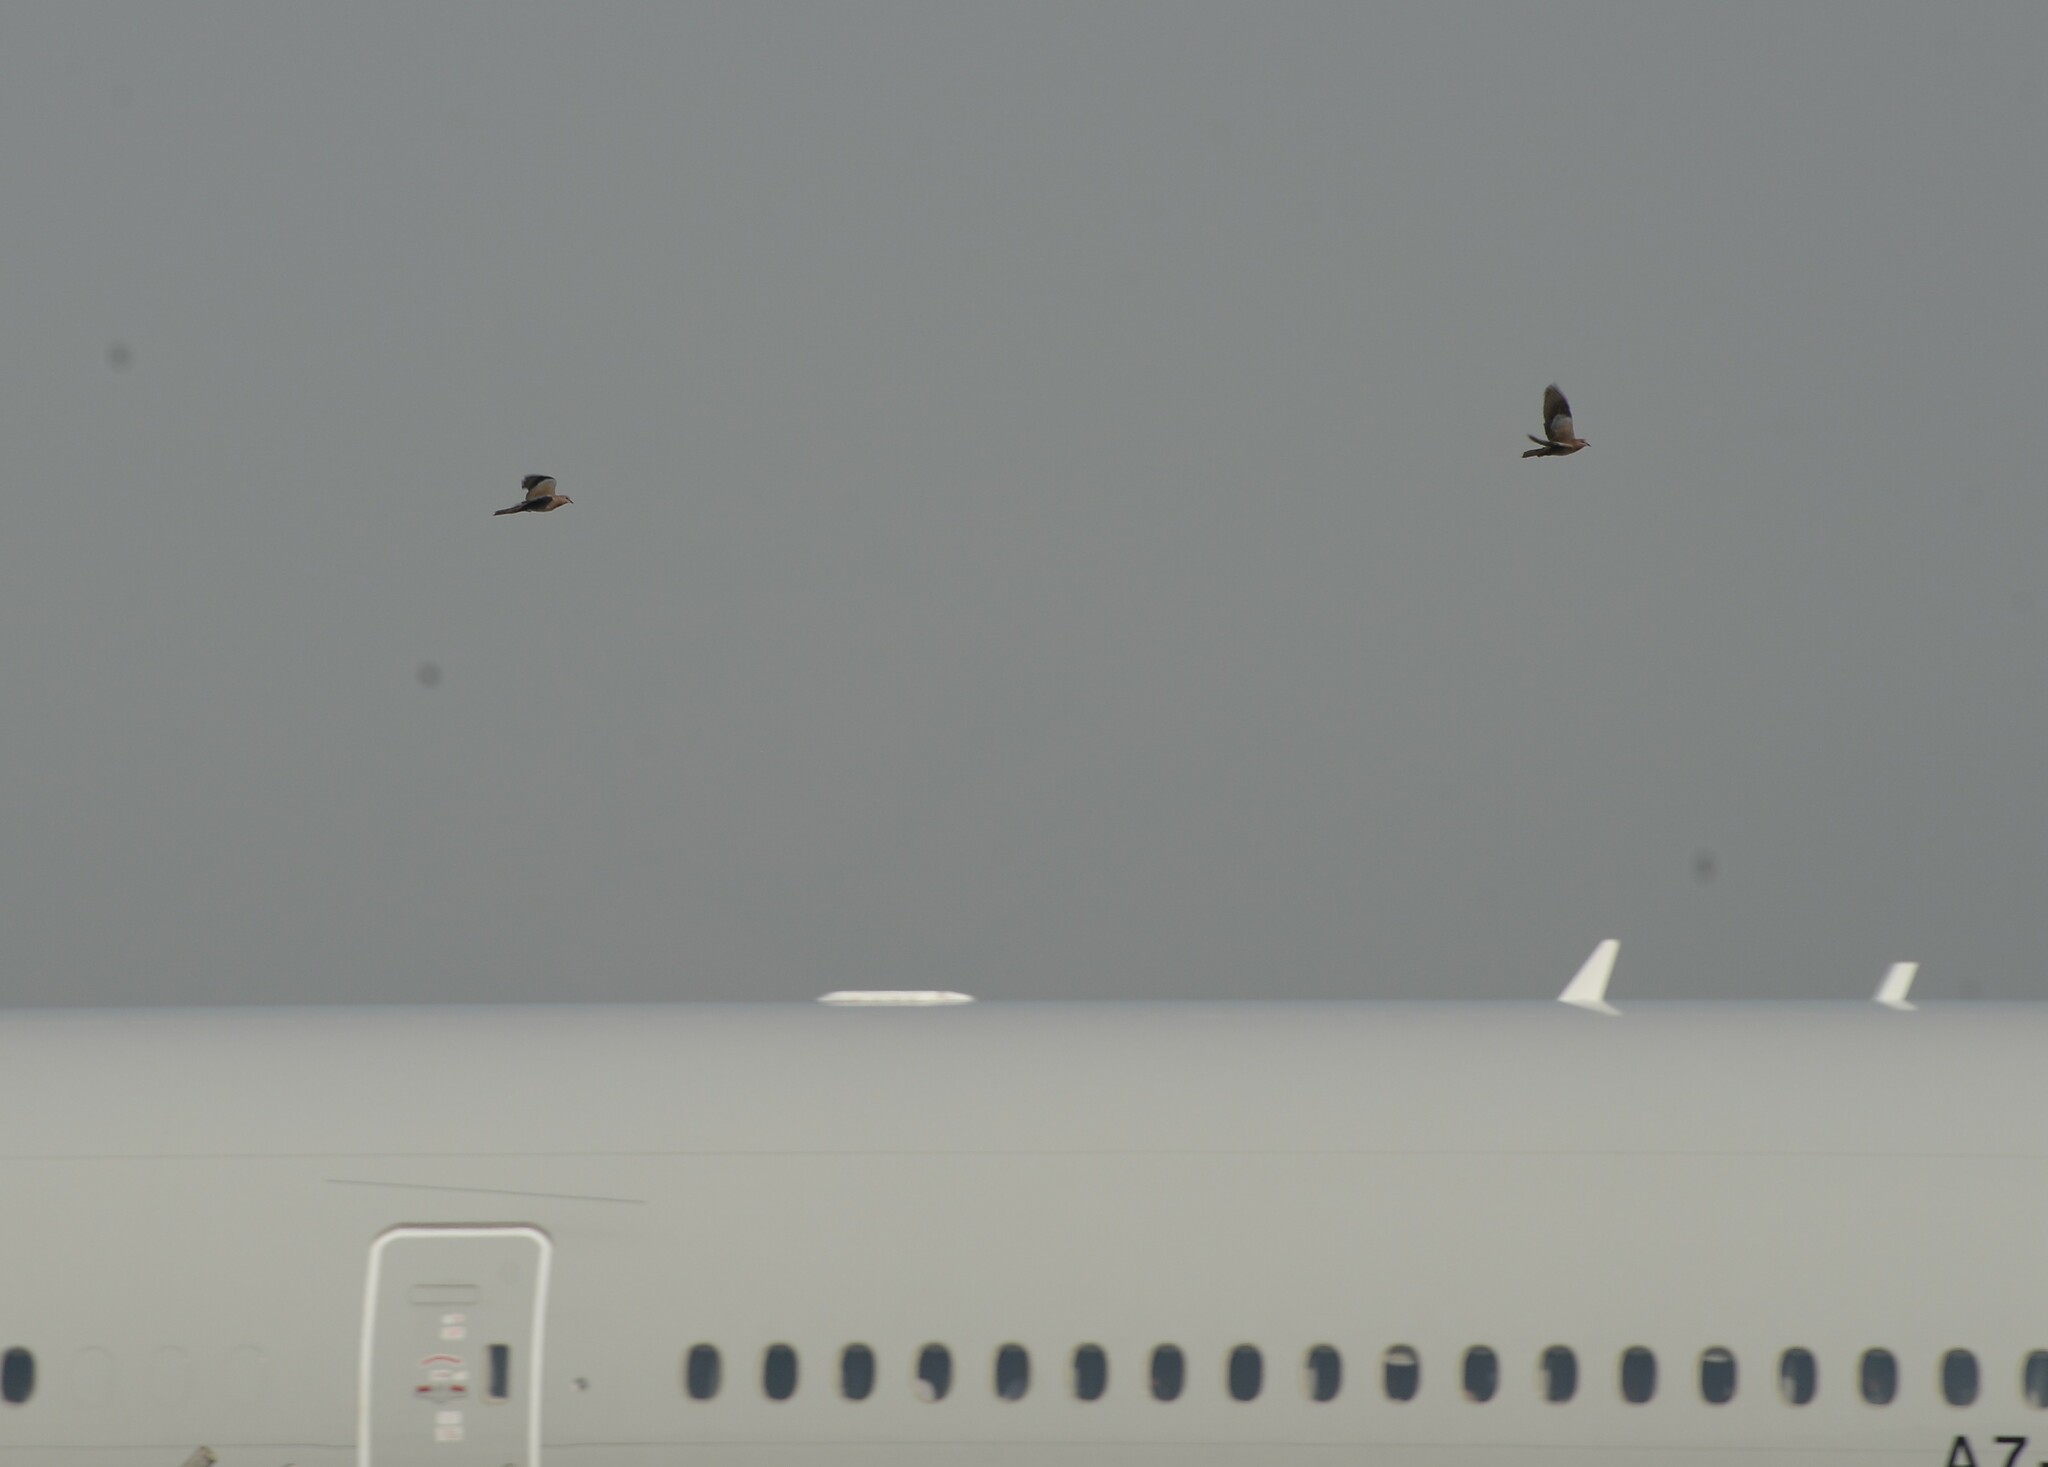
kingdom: Animalia
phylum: Chordata
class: Aves
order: Columbiformes
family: Columbidae
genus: Spilopelia
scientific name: Spilopelia senegalensis
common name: Laughing dove
